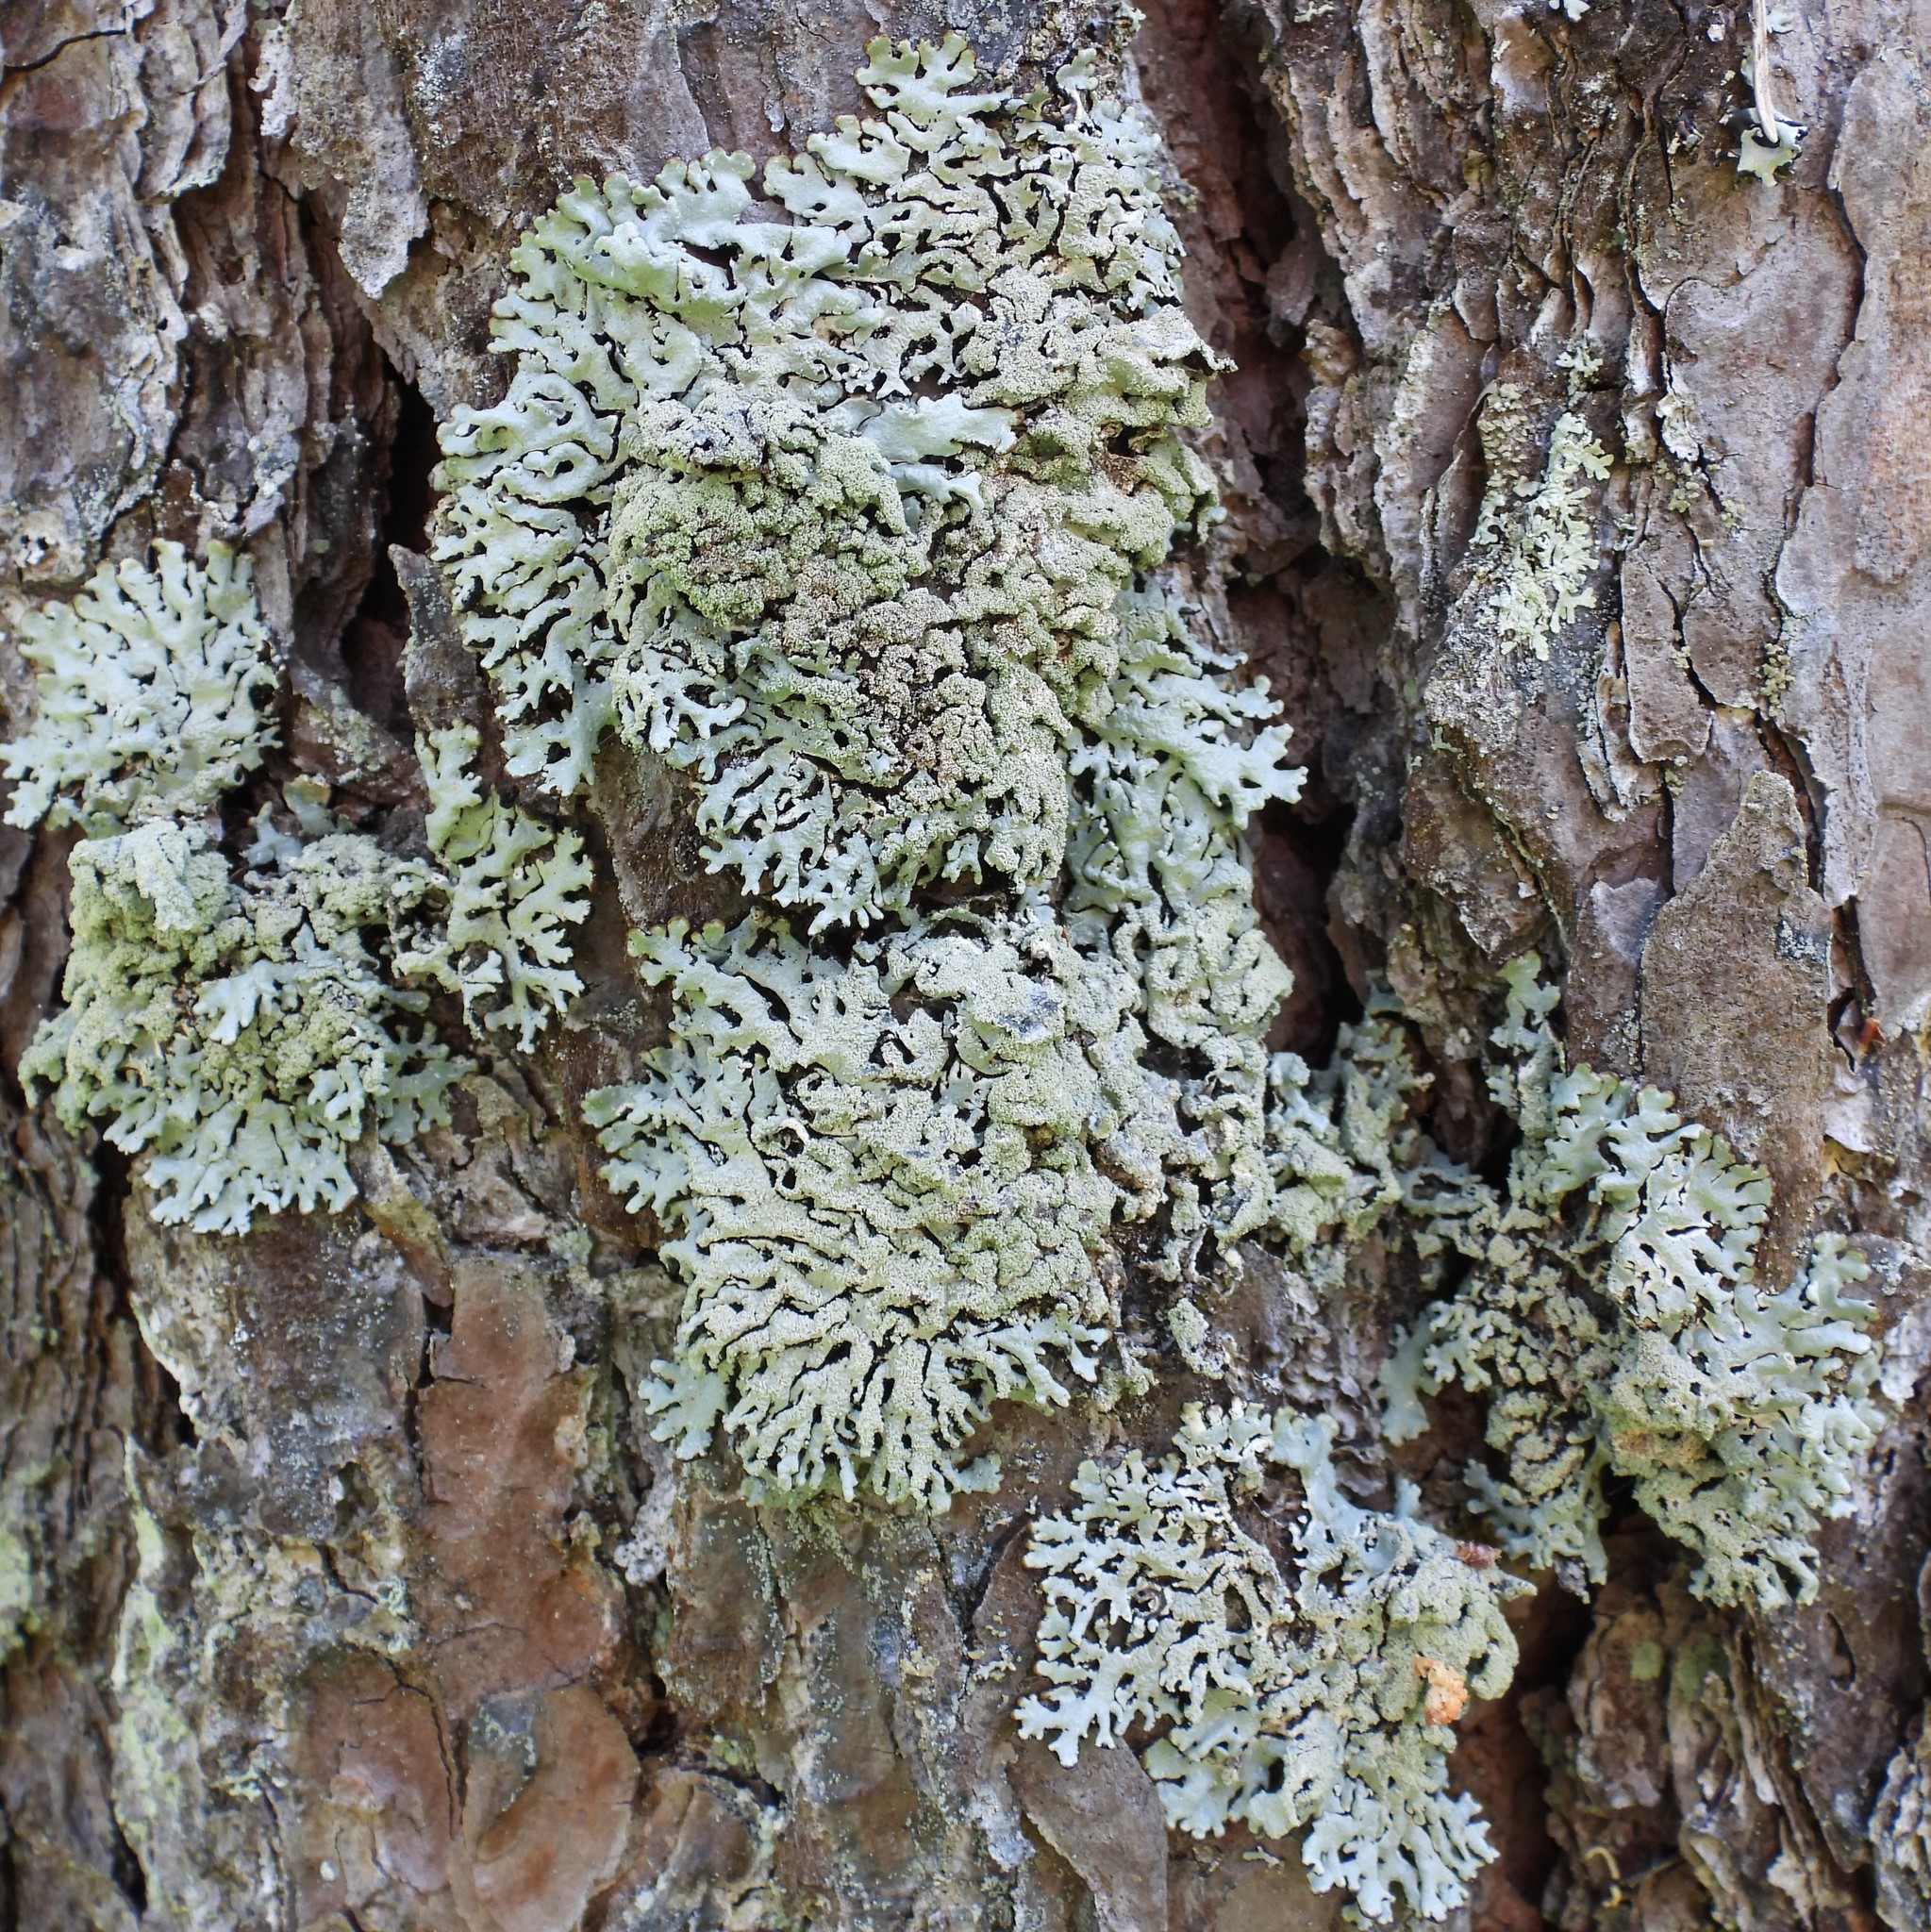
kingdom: Fungi
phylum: Ascomycota
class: Lecanoromycetes
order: Lecanorales
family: Parmeliaceae
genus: Hypogymnia
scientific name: Hypogymnia farinacea
